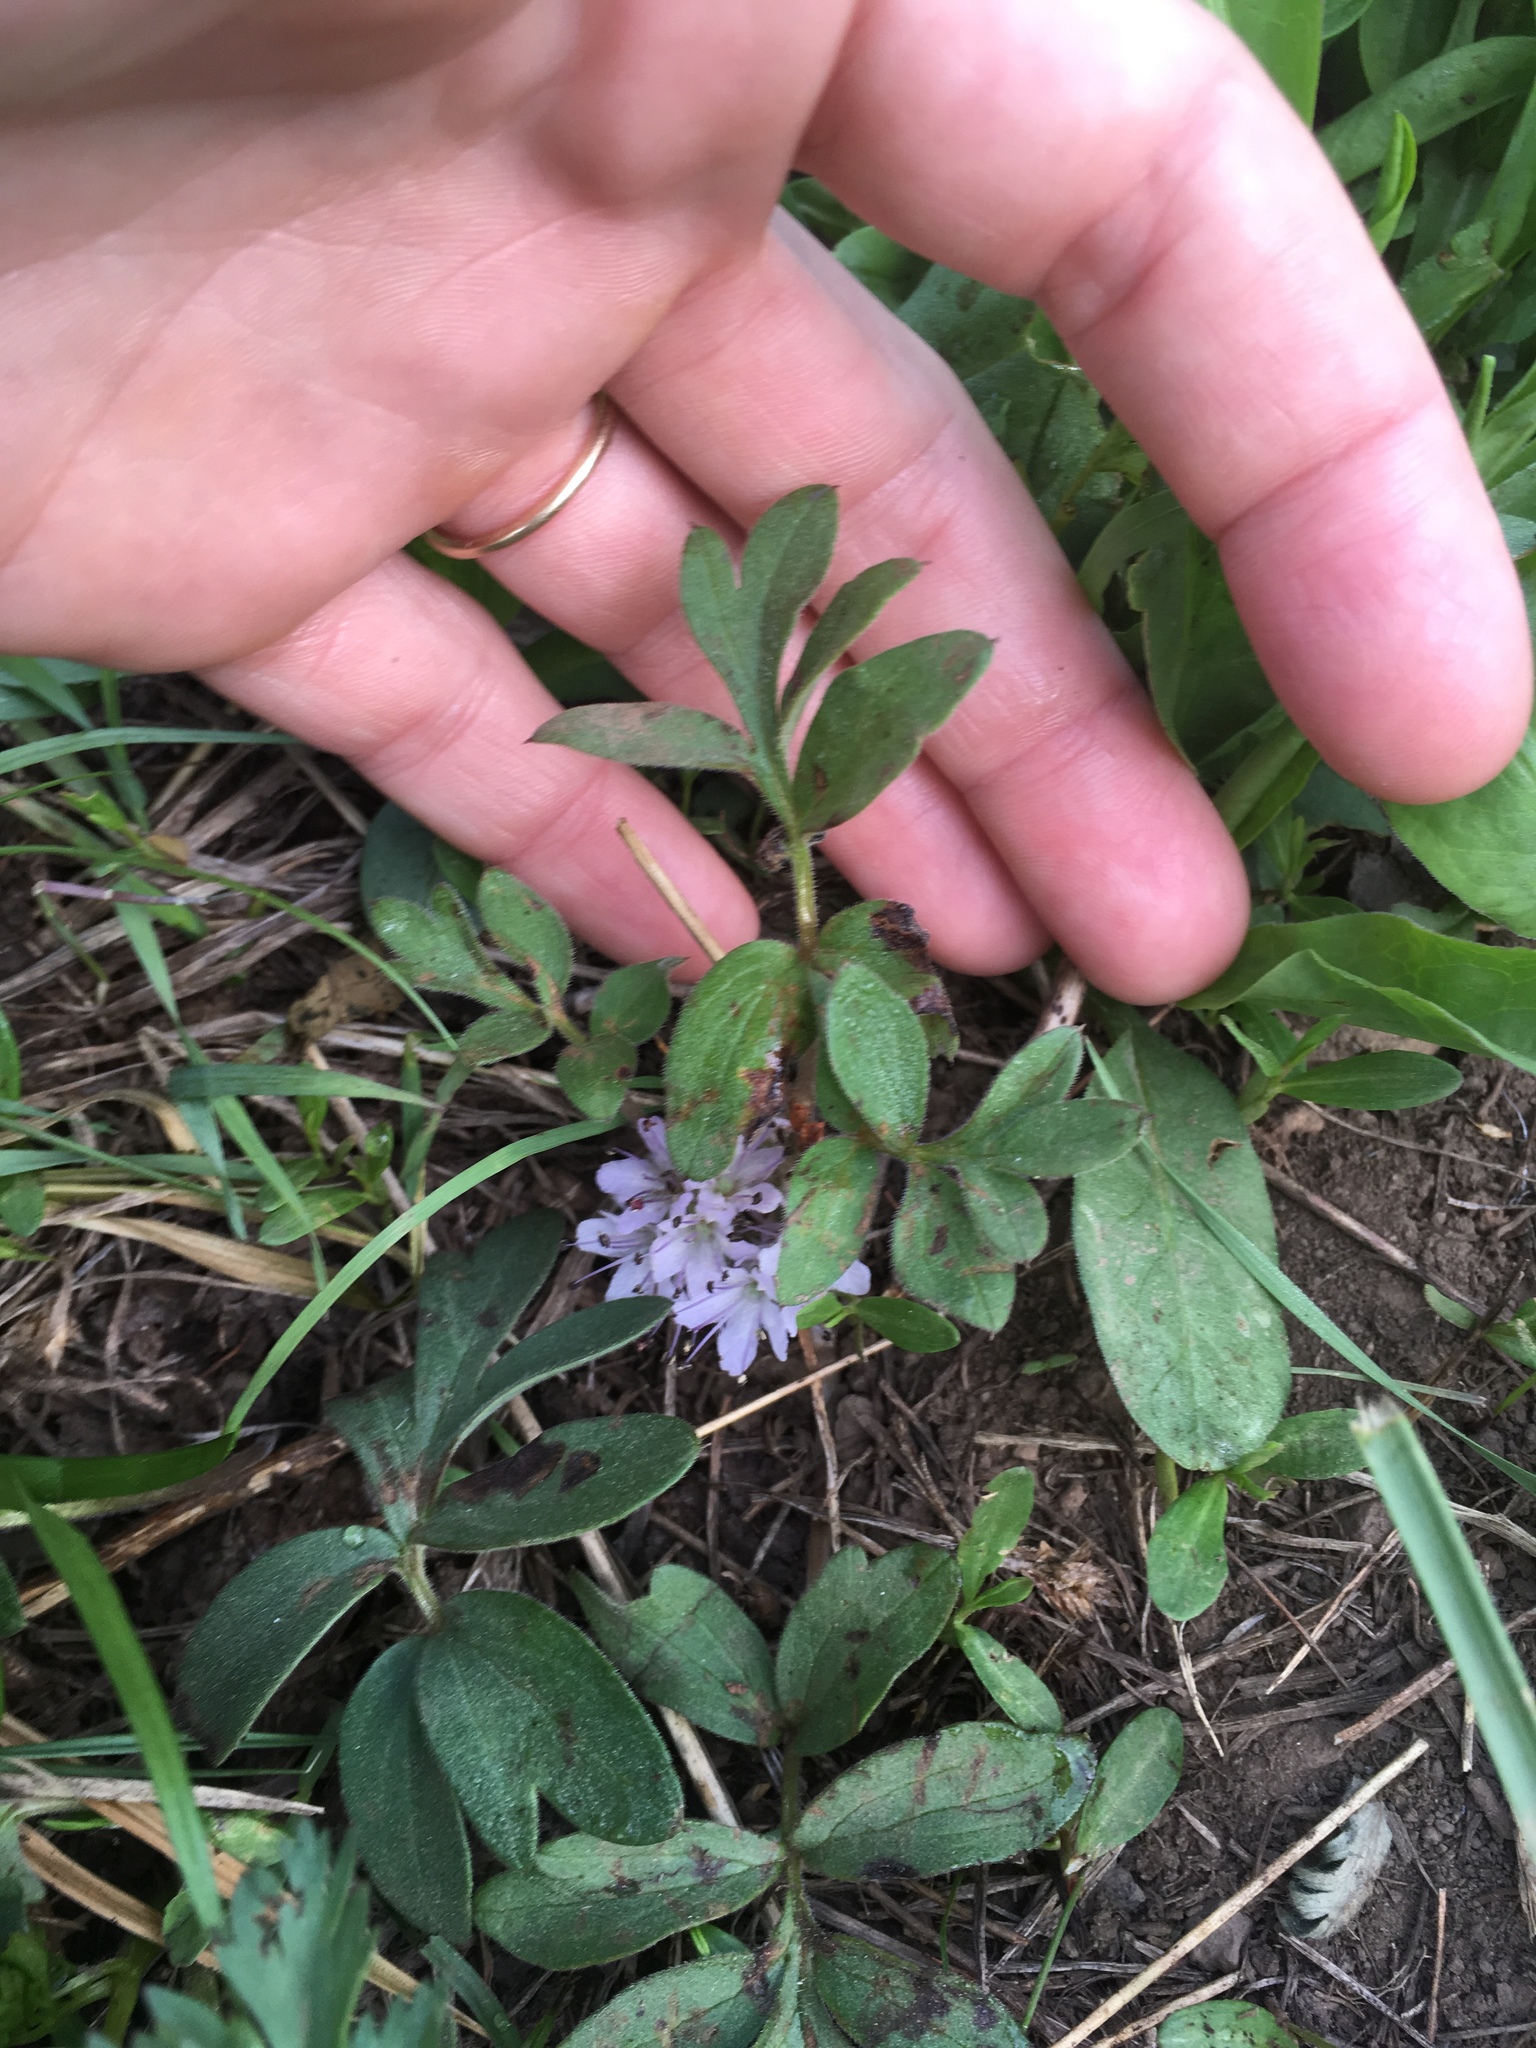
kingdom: Plantae
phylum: Tracheophyta
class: Magnoliopsida
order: Boraginales
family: Hydrophyllaceae
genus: Hydrophyllum
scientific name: Hydrophyllum capitatum
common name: Woollen-breeches
